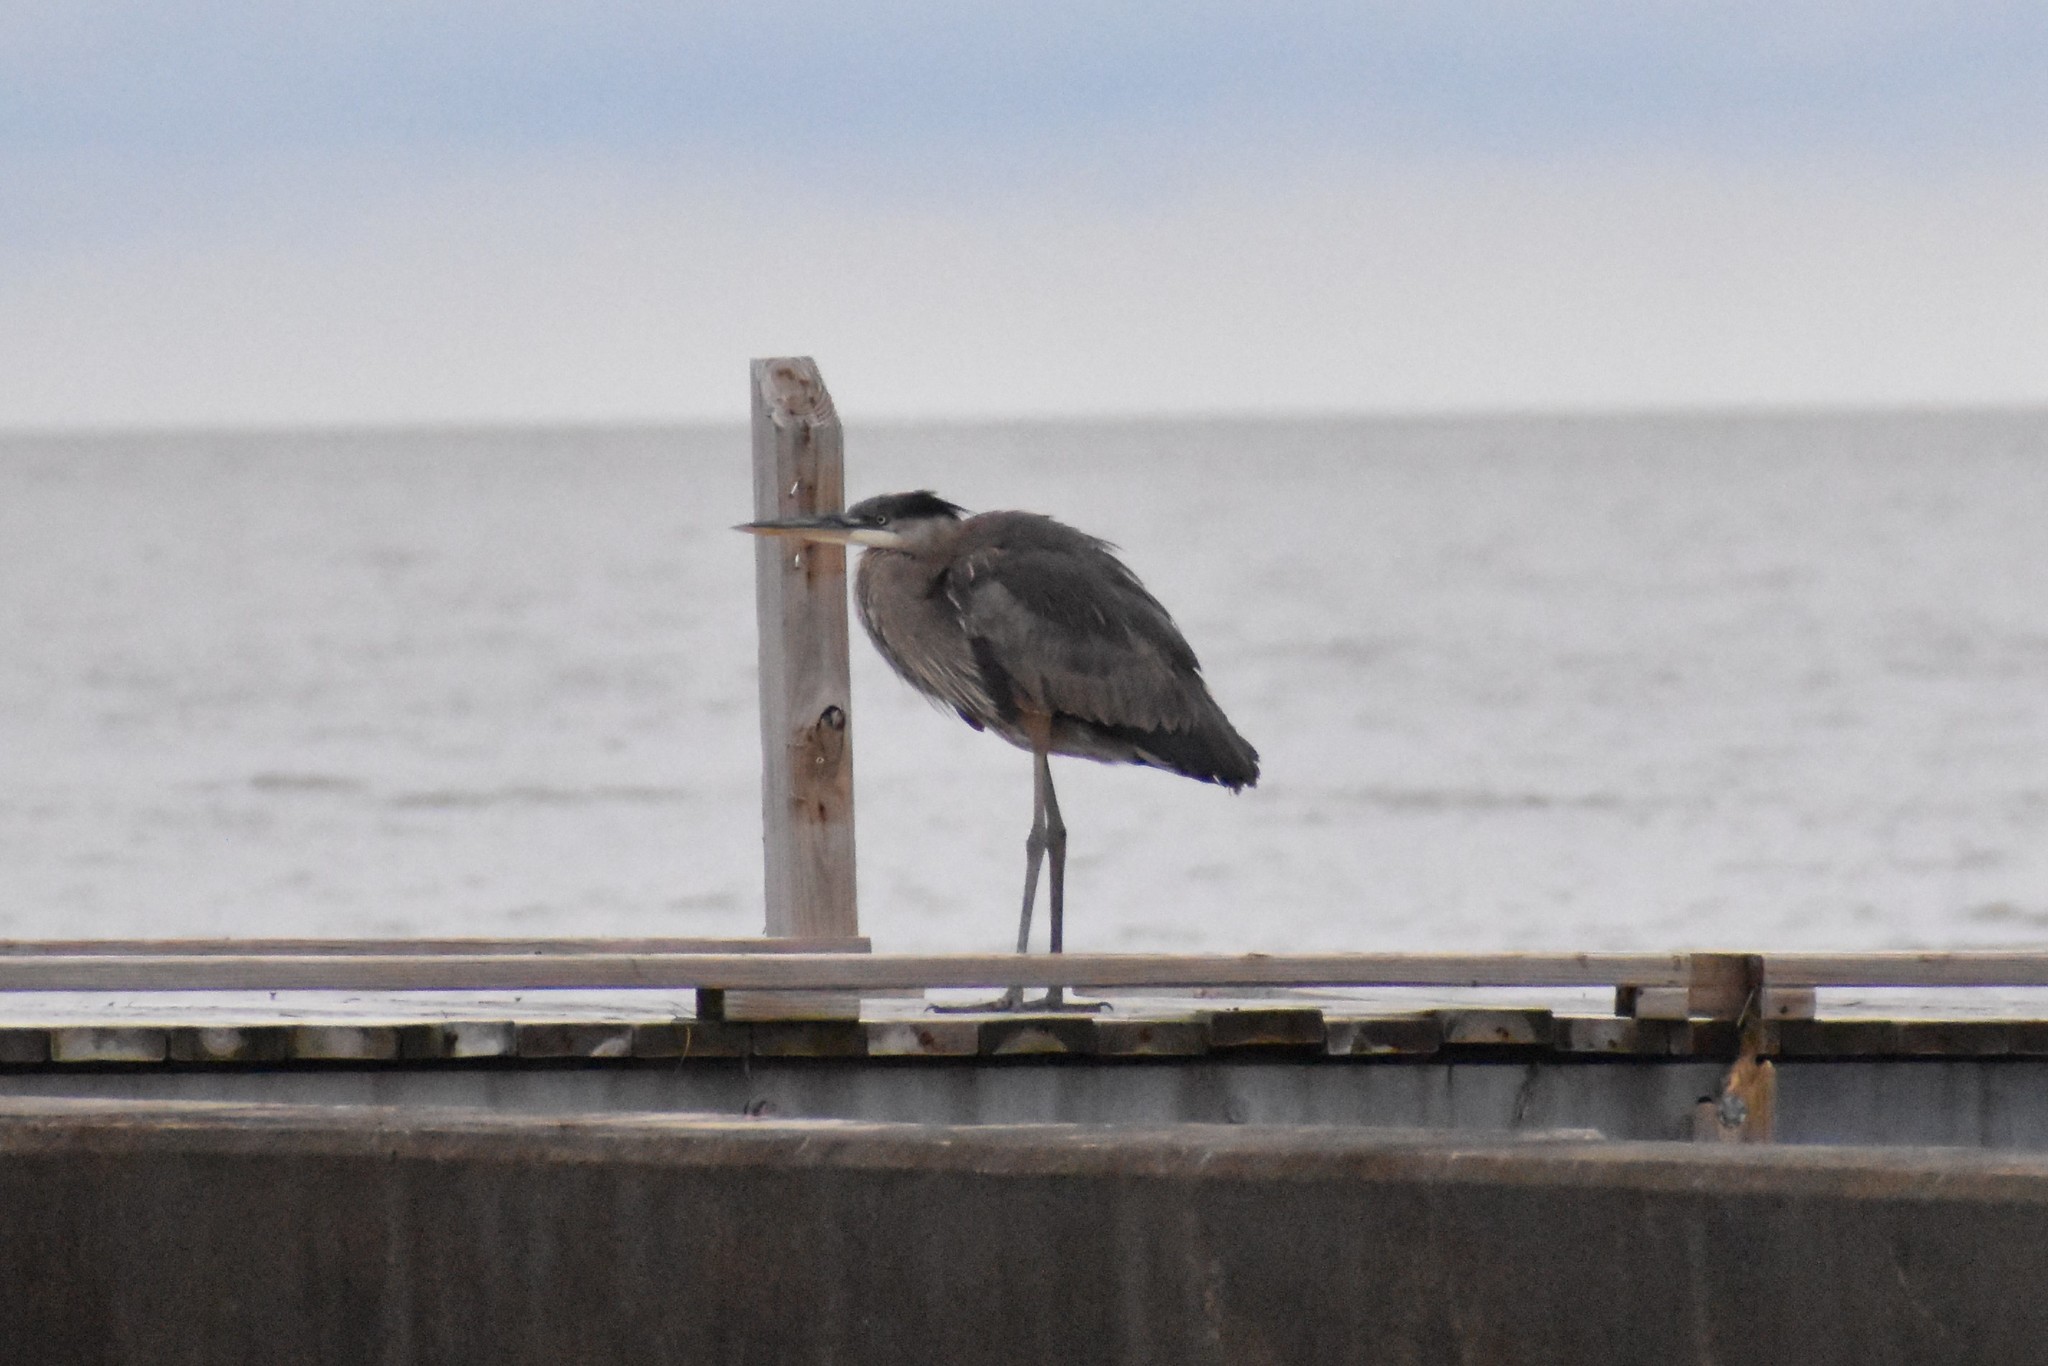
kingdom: Animalia
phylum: Chordata
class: Aves
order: Pelecaniformes
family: Ardeidae
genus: Ardea
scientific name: Ardea herodias
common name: Great blue heron
